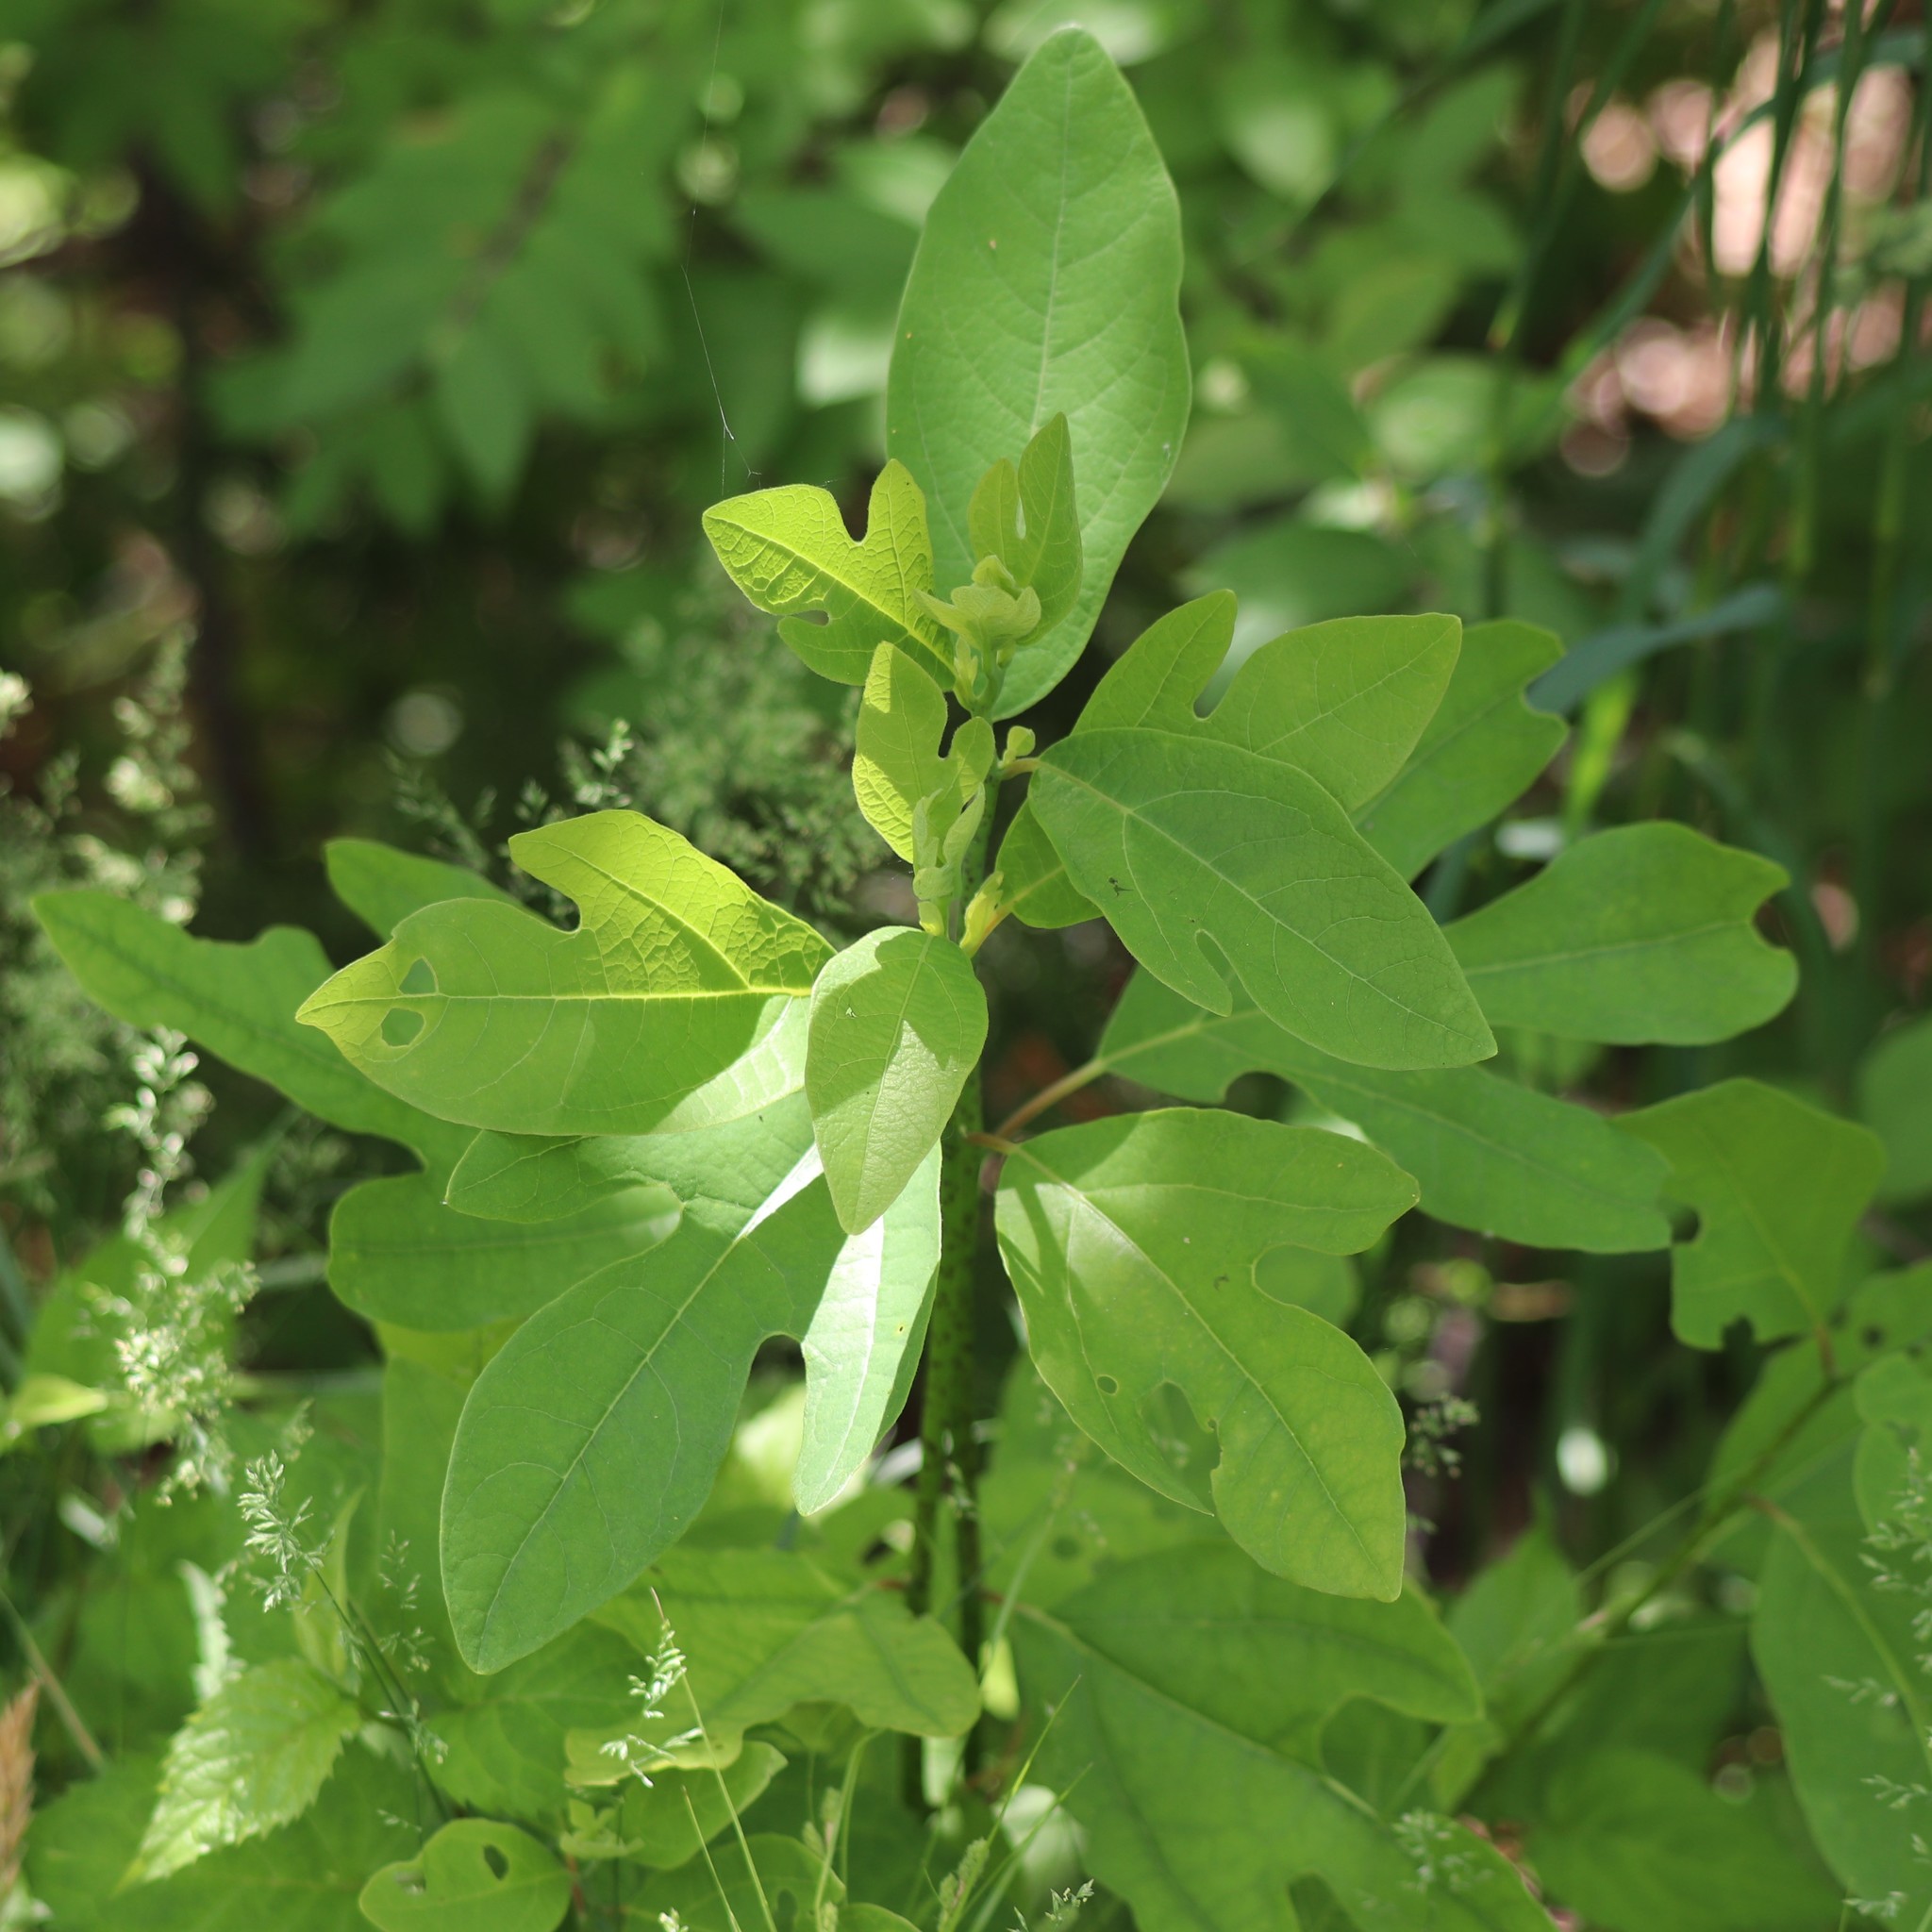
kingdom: Plantae
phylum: Tracheophyta
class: Magnoliopsida
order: Laurales
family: Lauraceae
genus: Sassafras
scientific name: Sassafras albidum
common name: Sassafras
